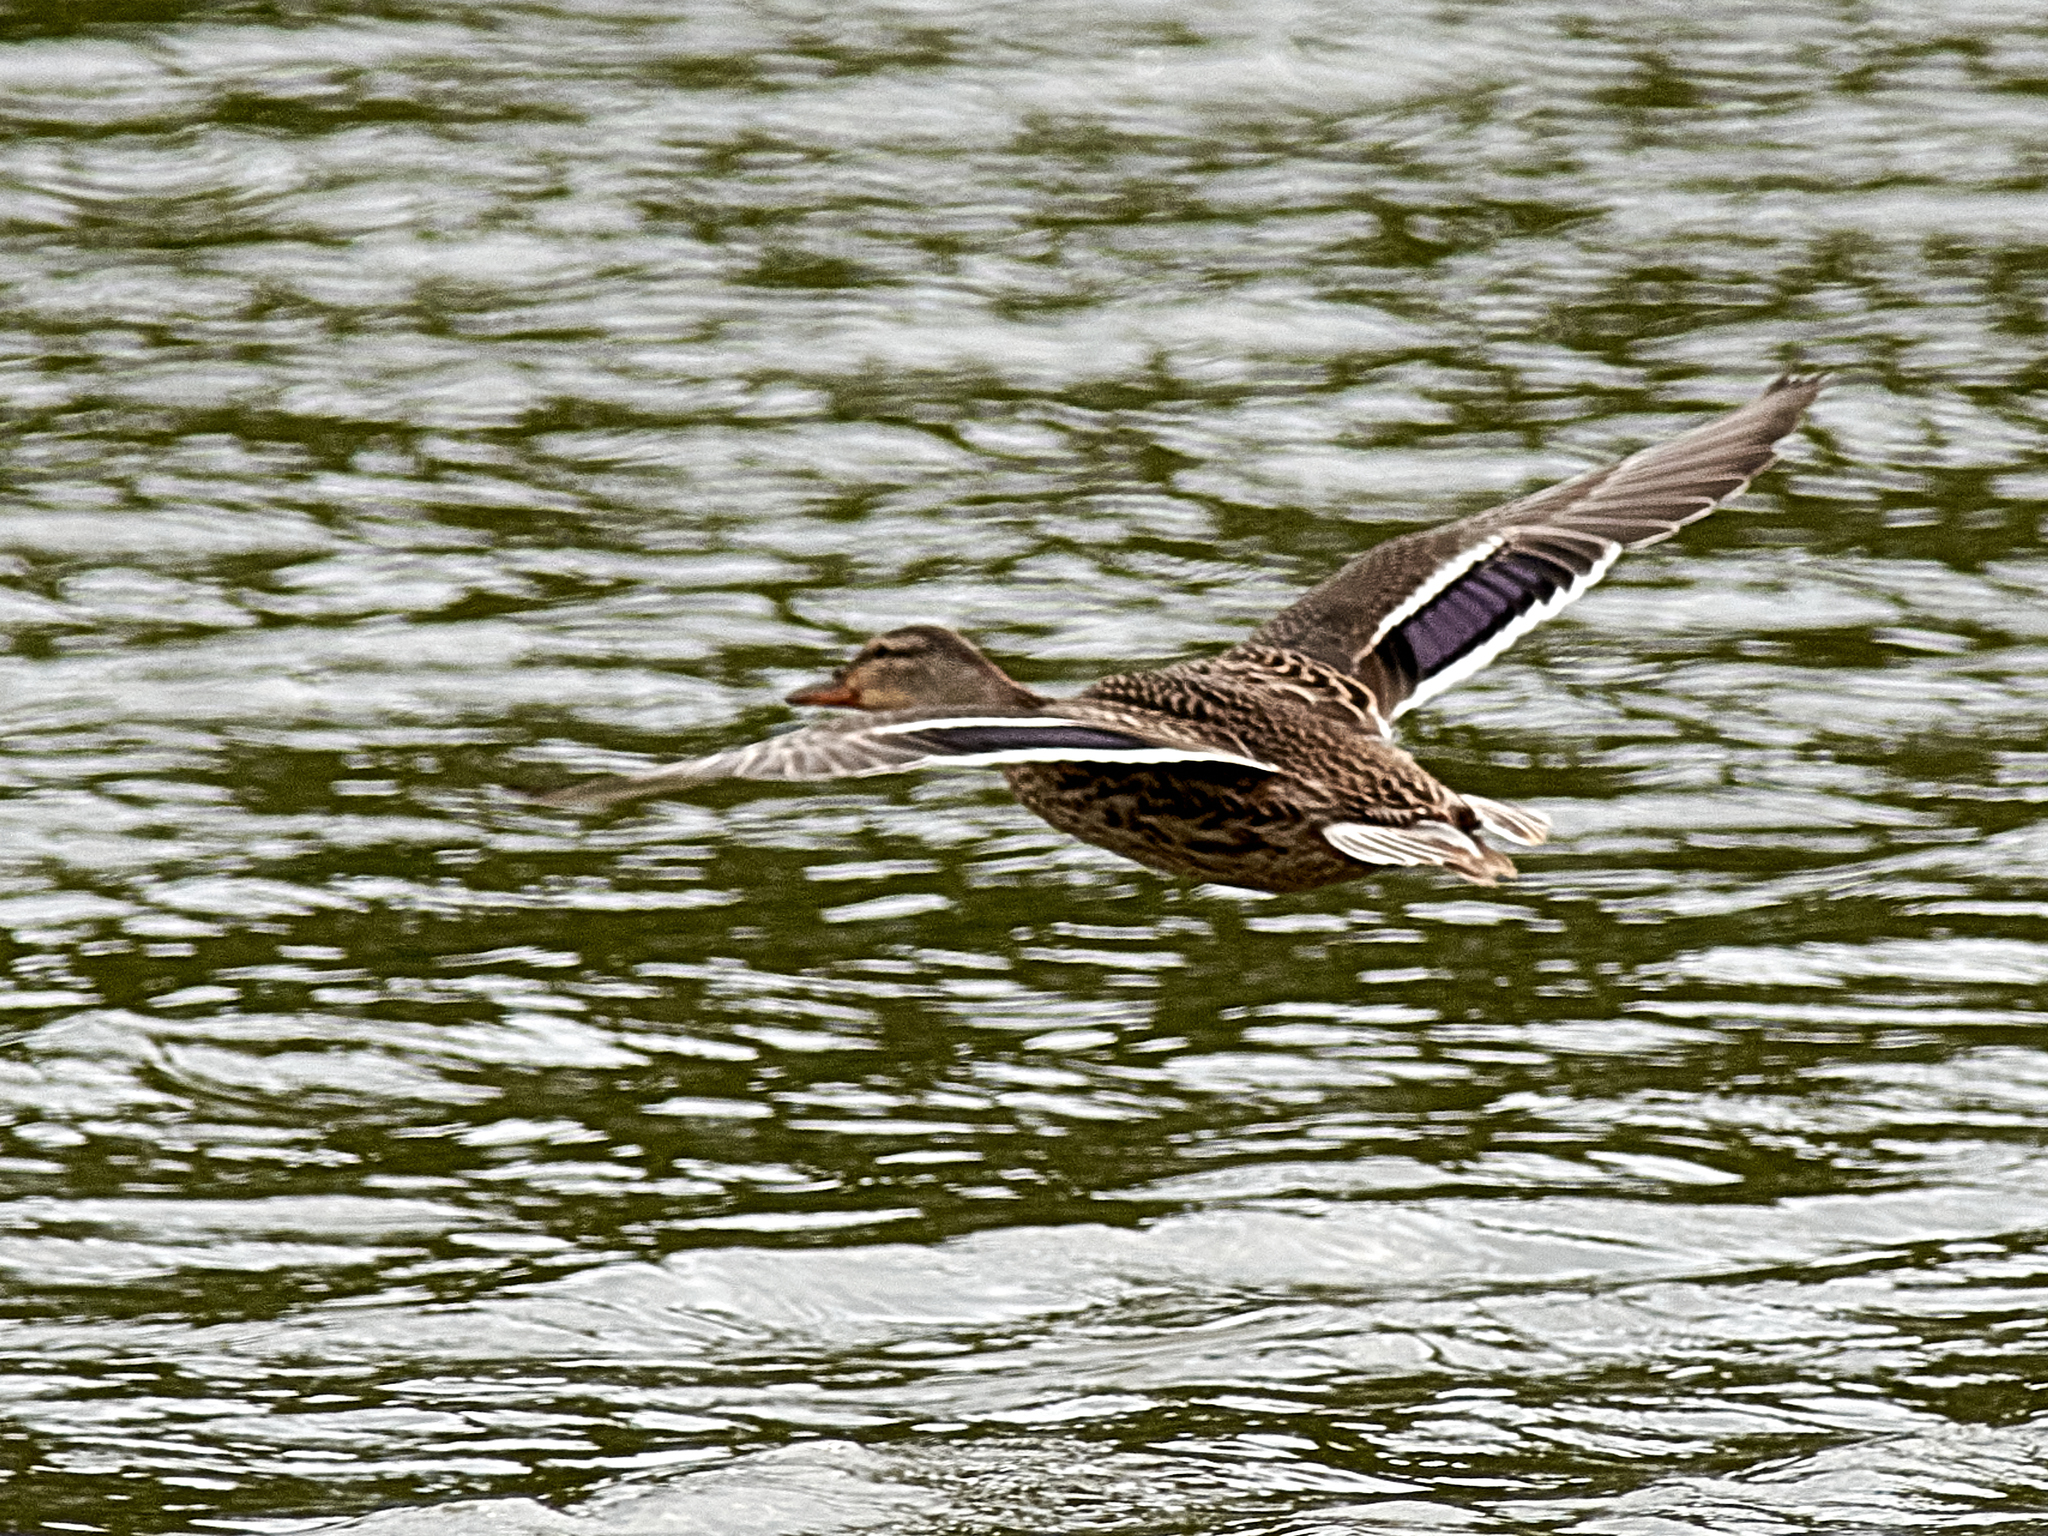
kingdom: Animalia
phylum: Chordata
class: Aves
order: Anseriformes
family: Anatidae
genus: Anas
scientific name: Anas platyrhynchos
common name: Mallard
